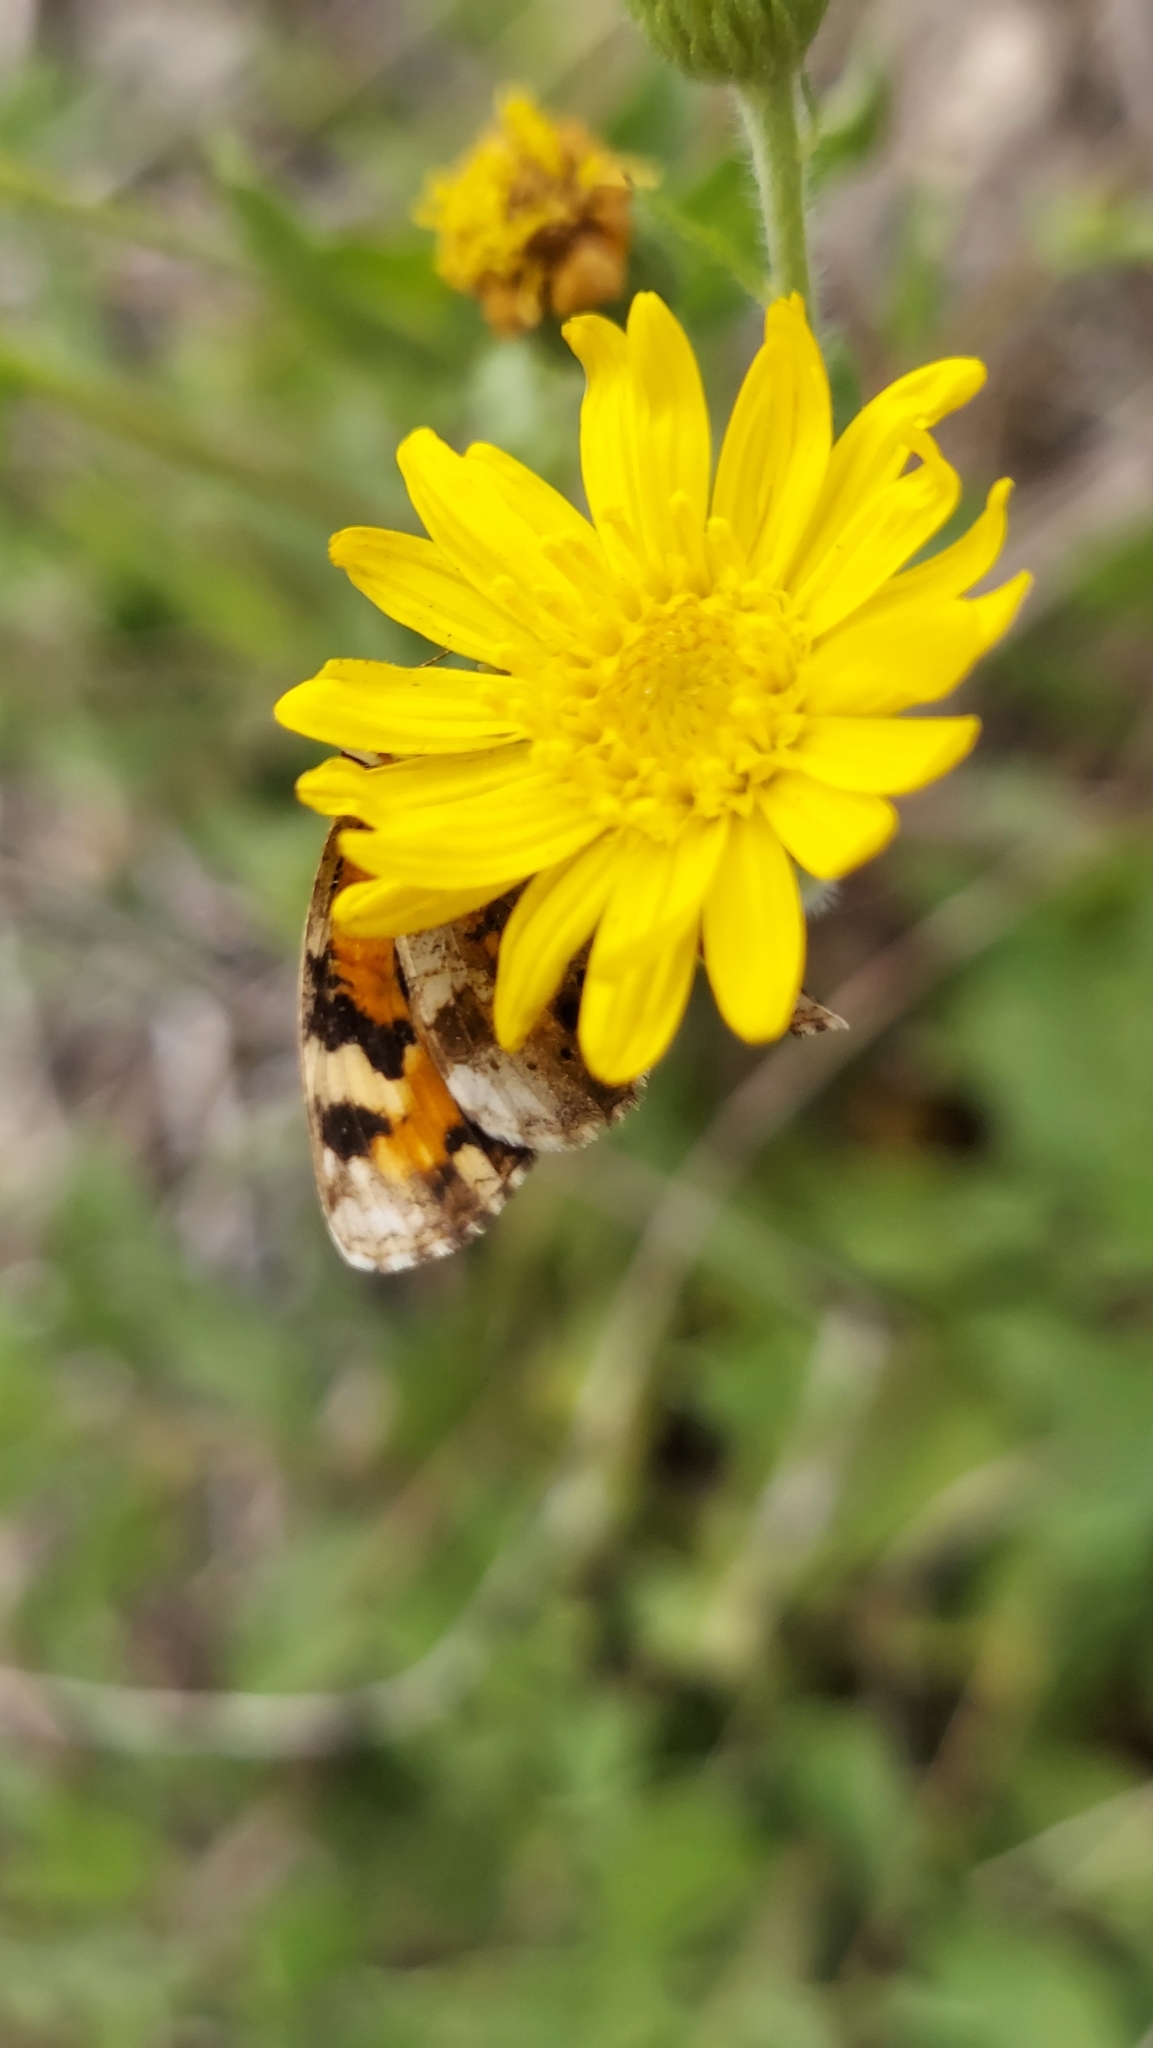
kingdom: Animalia
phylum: Arthropoda
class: Insecta
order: Lepidoptera
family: Nymphalidae
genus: Phyciodes
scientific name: Phyciodes phaon
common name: Phaon crescent
